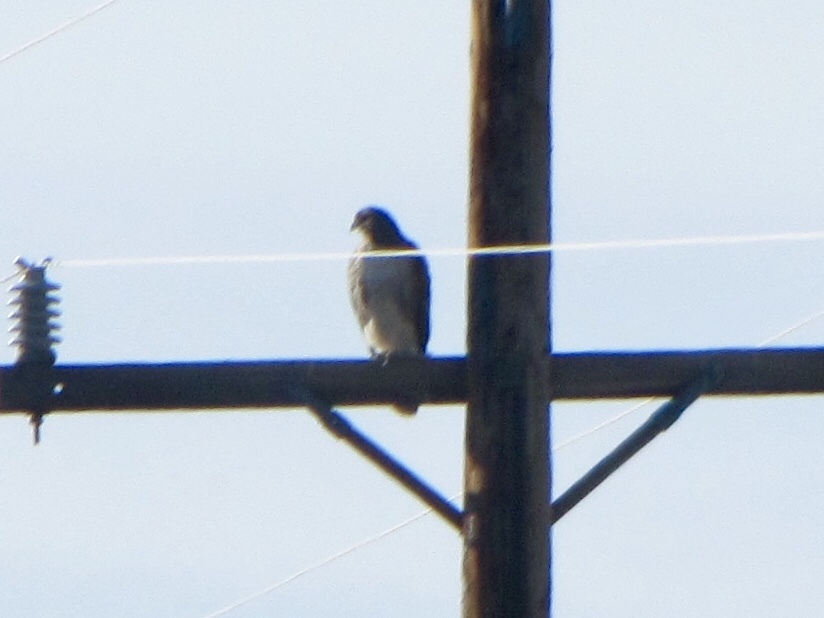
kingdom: Animalia
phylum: Chordata
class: Aves
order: Accipitriformes
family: Accipitridae
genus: Buteo
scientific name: Buteo jamaicensis
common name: Red-tailed hawk
